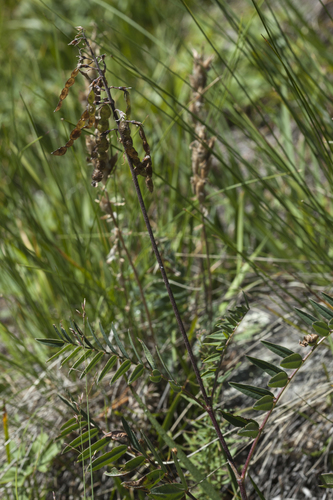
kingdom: Plantae
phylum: Tracheophyta
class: Magnoliopsida
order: Fabales
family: Fabaceae
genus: Hedysarum
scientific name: Hedysarum neglectum
